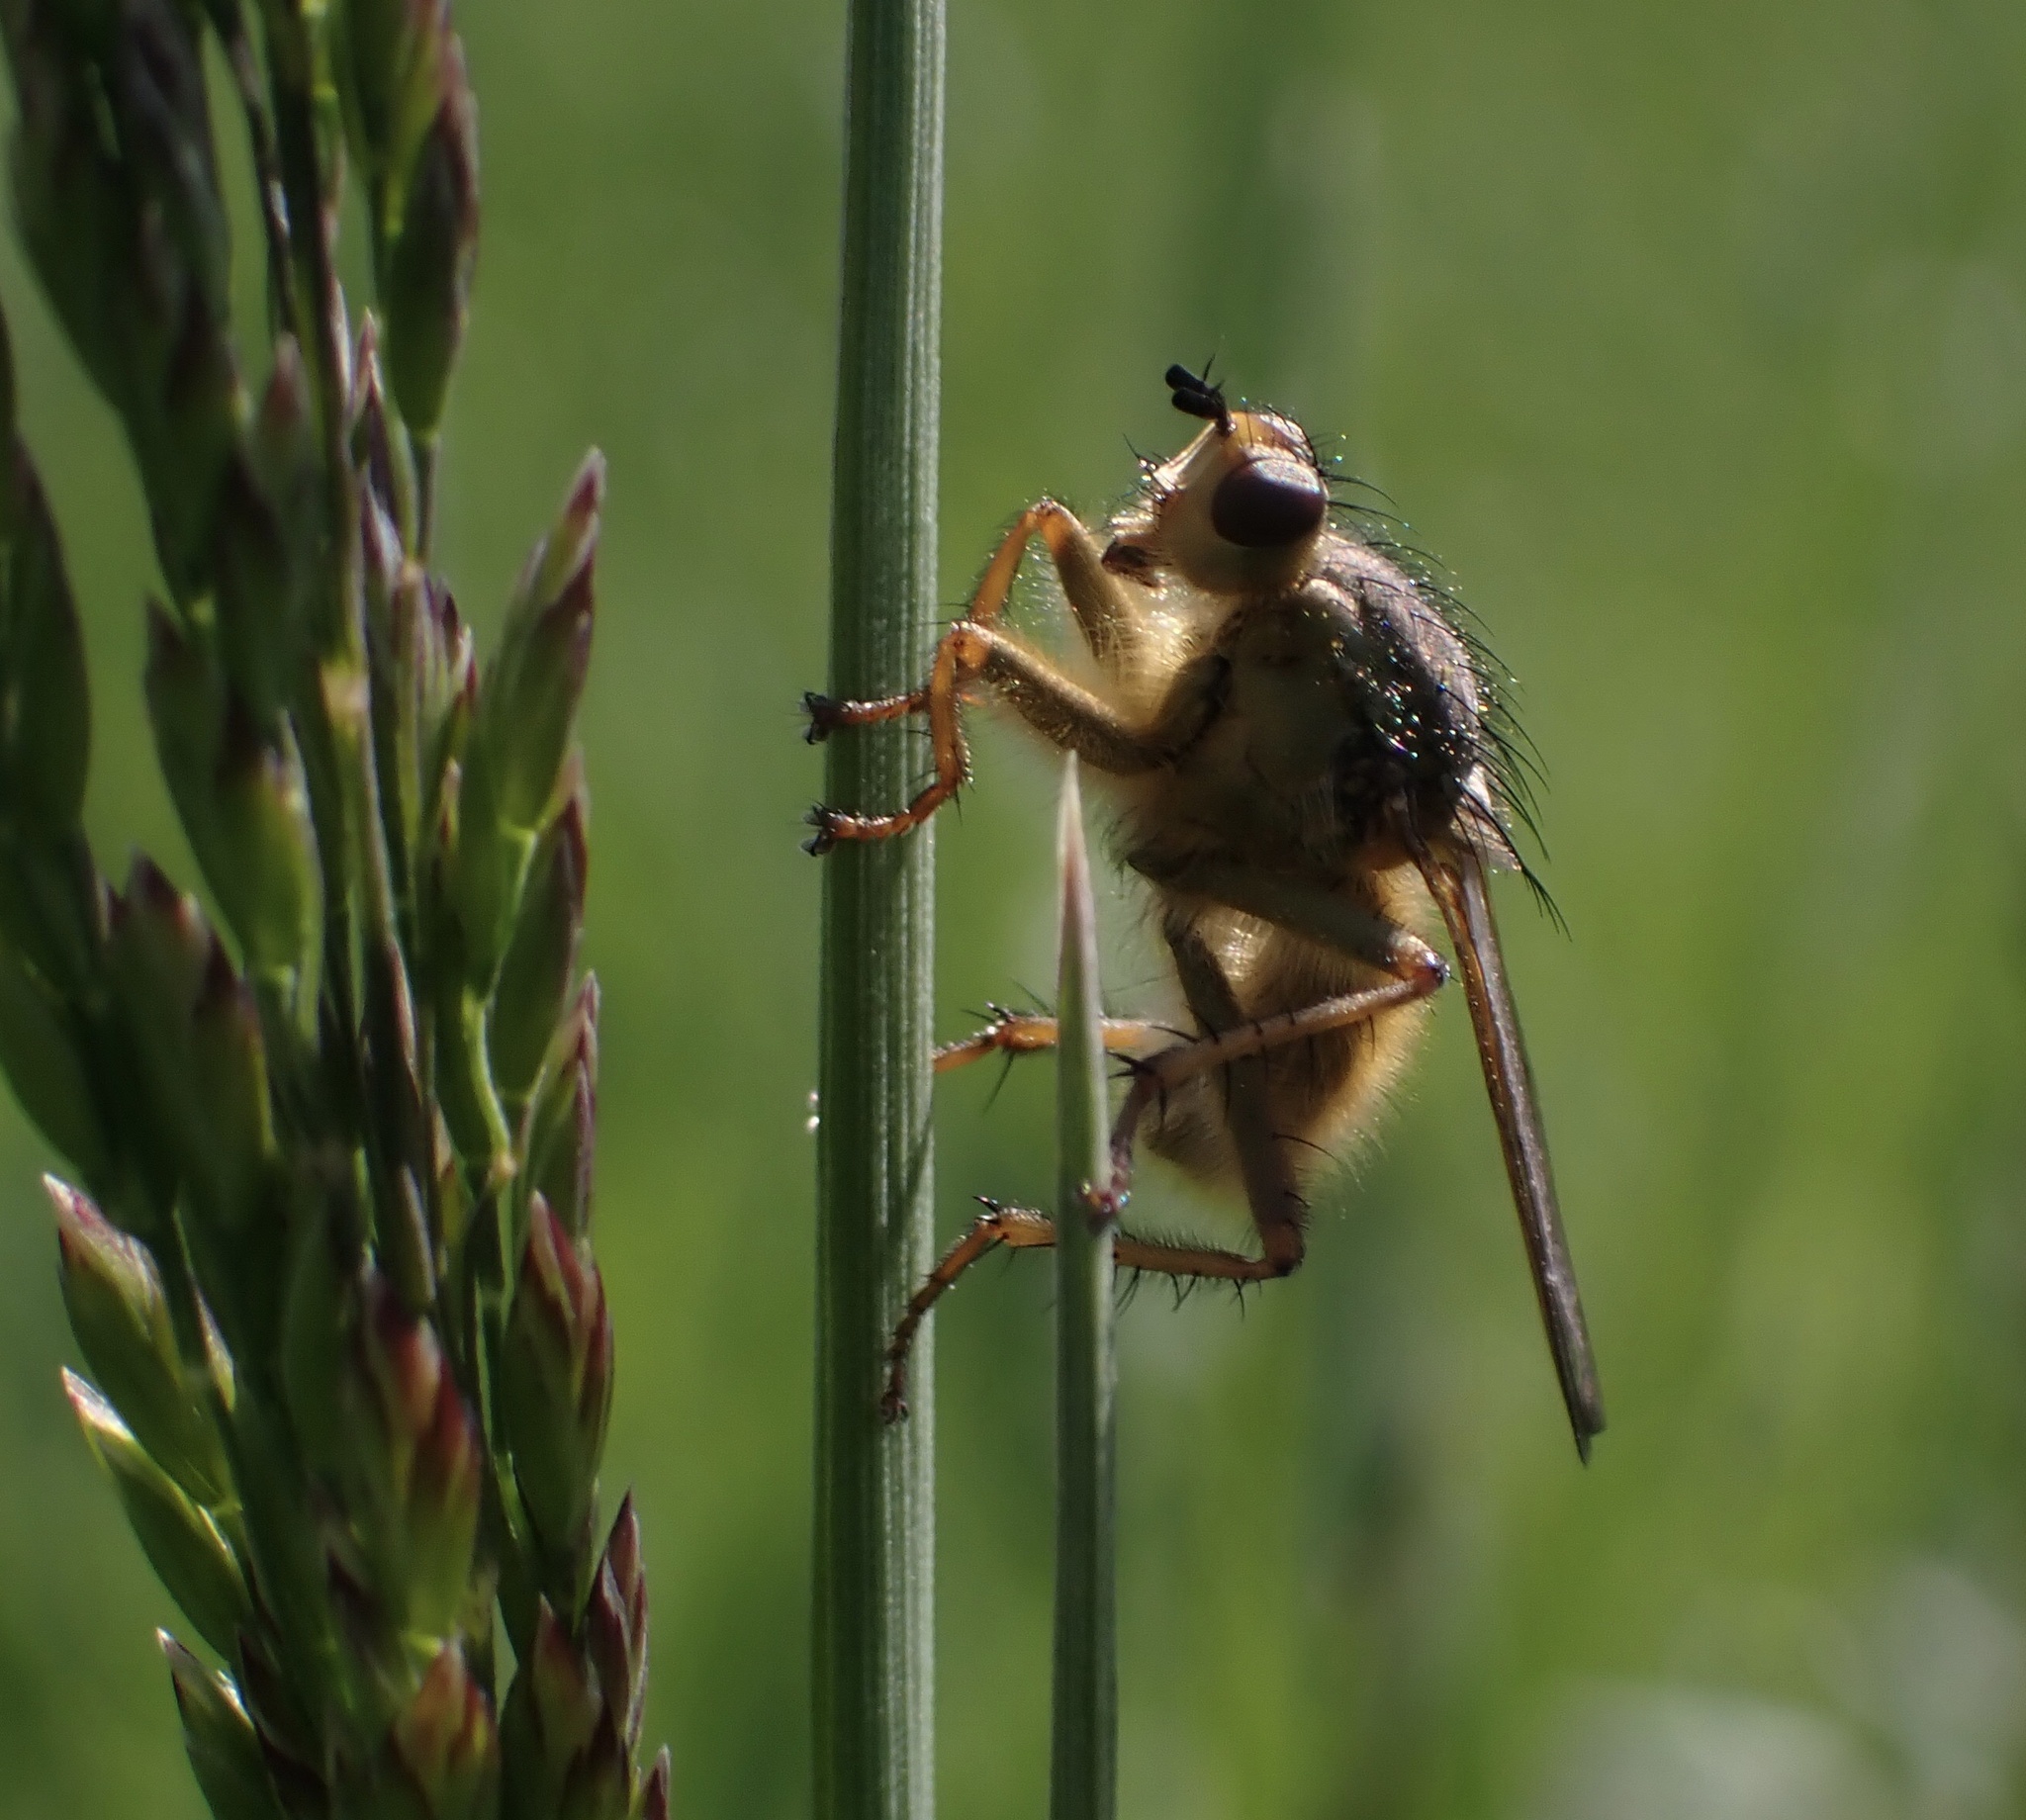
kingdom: Animalia
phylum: Arthropoda
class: Insecta
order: Diptera
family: Scathophagidae
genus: Scathophaga
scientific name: Scathophaga stercoraria
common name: Yellow dung fly
